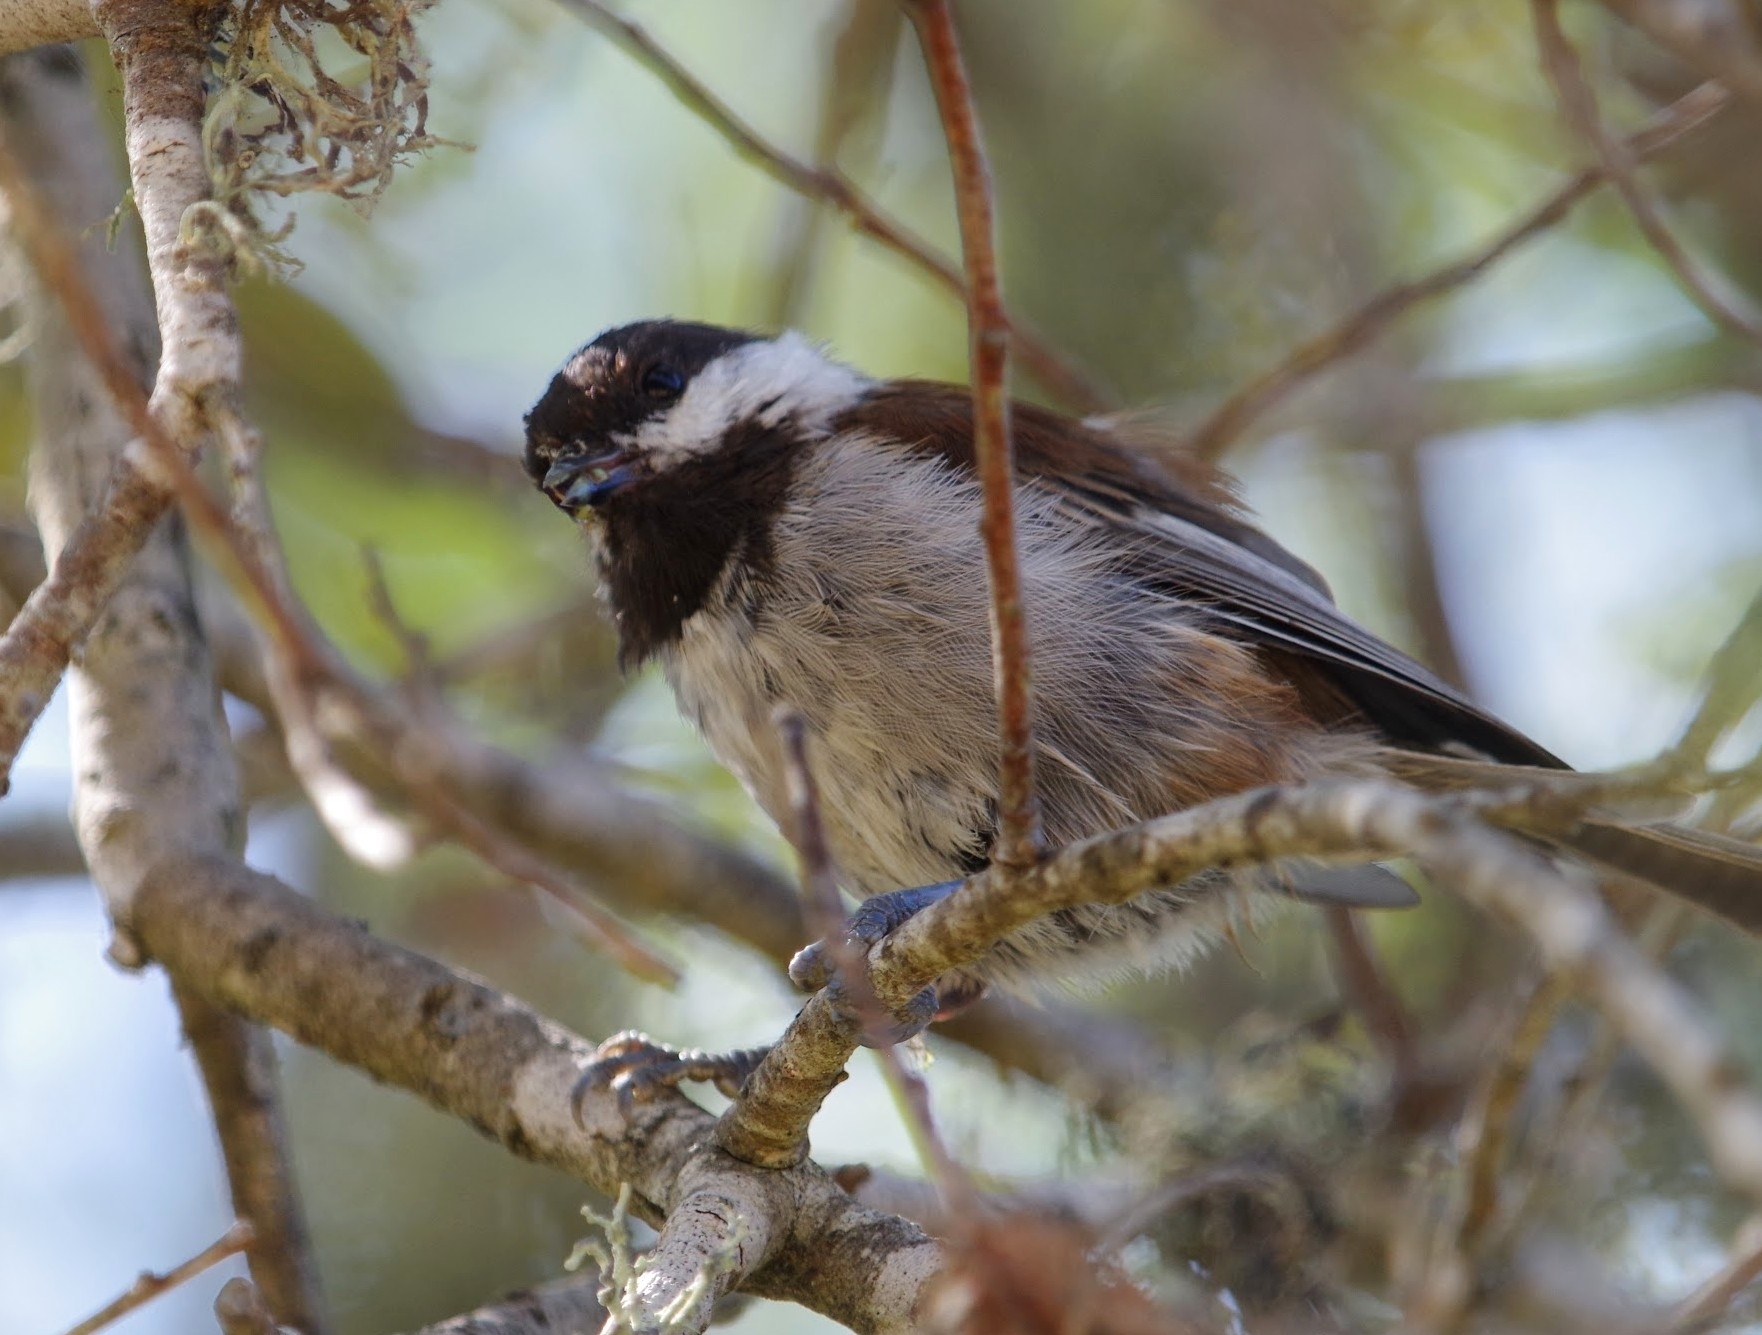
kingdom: Animalia
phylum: Chordata
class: Aves
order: Passeriformes
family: Paridae
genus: Poecile
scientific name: Poecile rufescens
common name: Chestnut-backed chickadee
